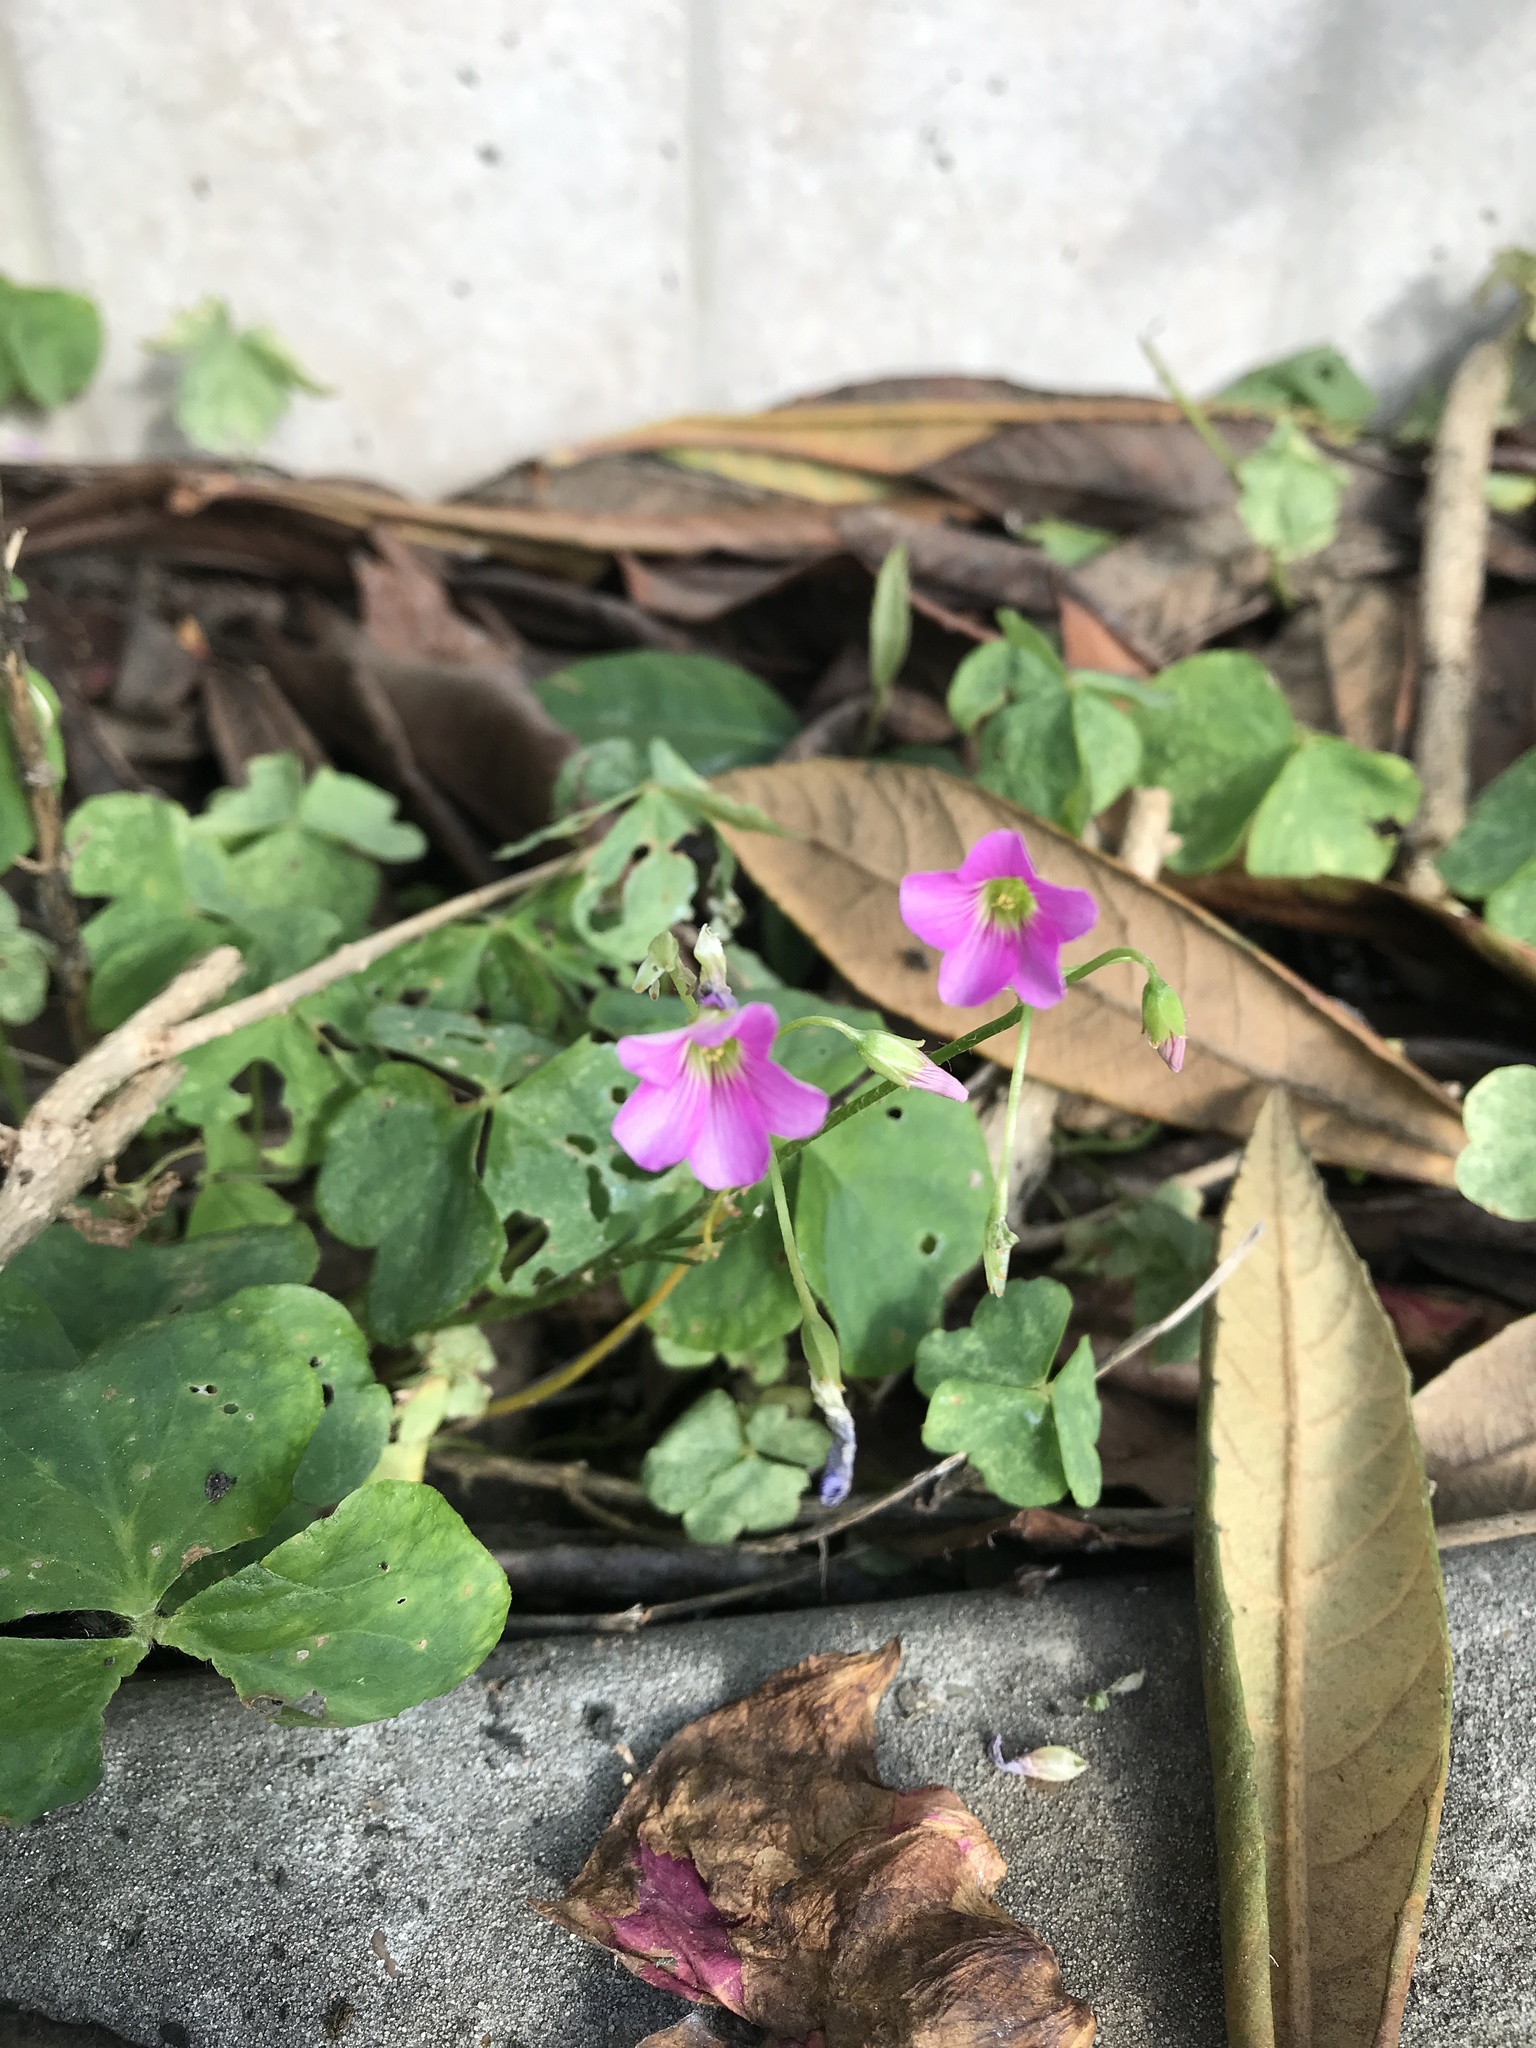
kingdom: Plantae
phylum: Tracheophyta
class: Magnoliopsida
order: Oxalidales
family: Oxalidaceae
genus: Oxalis
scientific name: Oxalis debilis
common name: Large-flowered pink-sorrel
